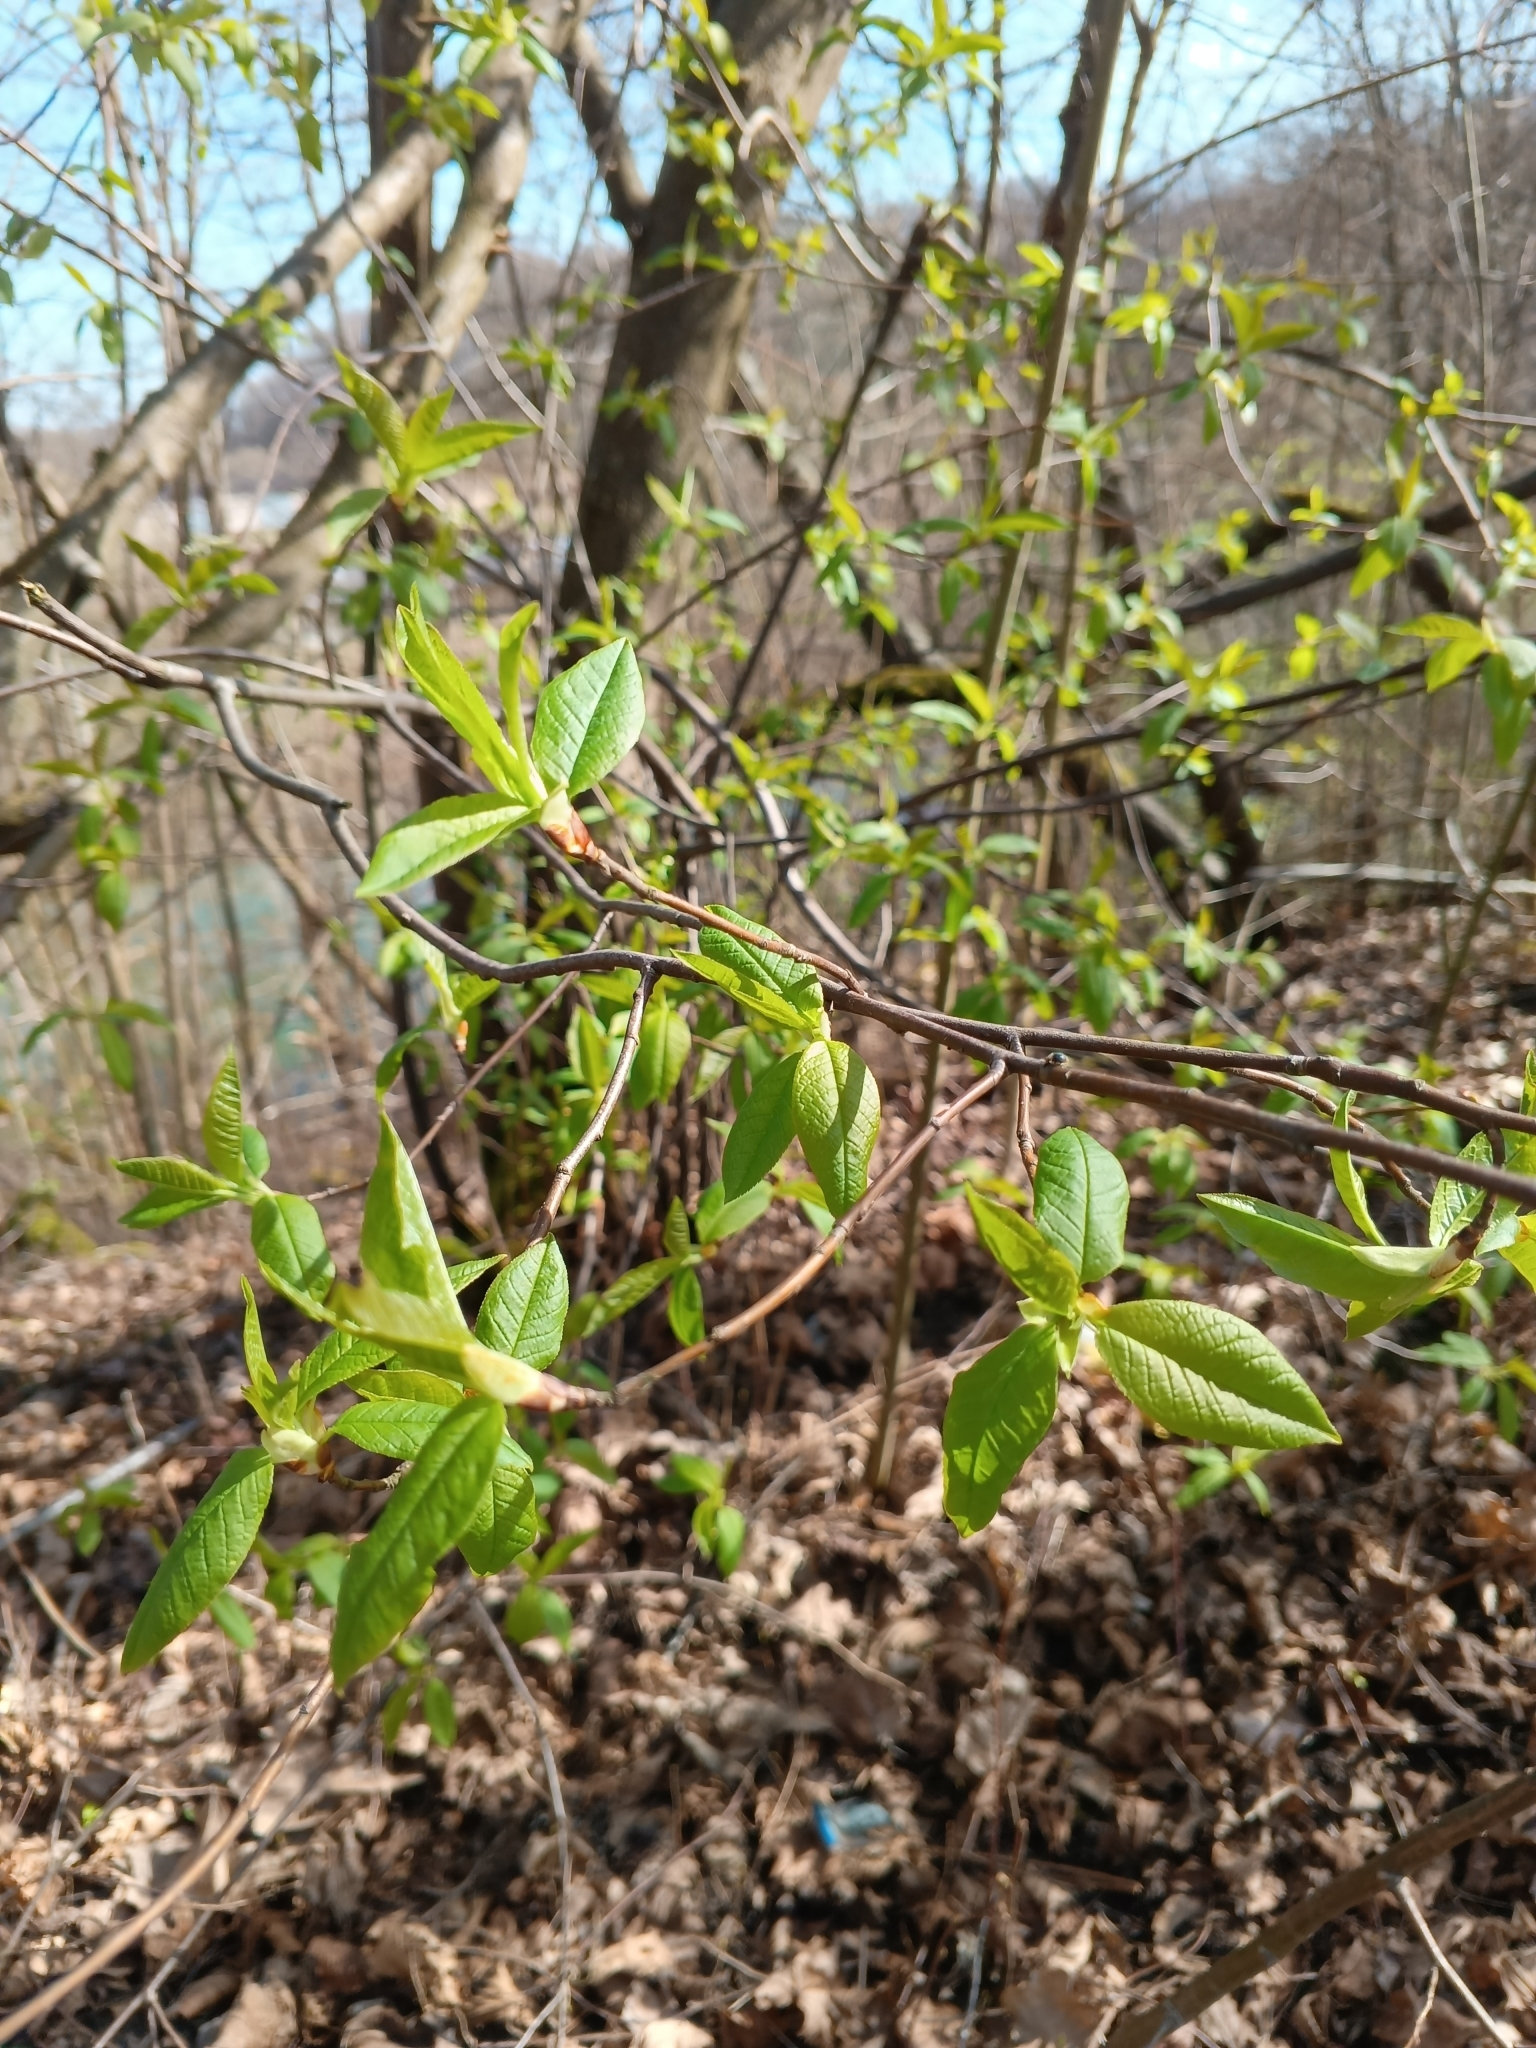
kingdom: Plantae
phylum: Tracheophyta
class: Magnoliopsida
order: Rosales
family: Rosaceae
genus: Prunus
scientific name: Prunus padus
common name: Bird cherry
